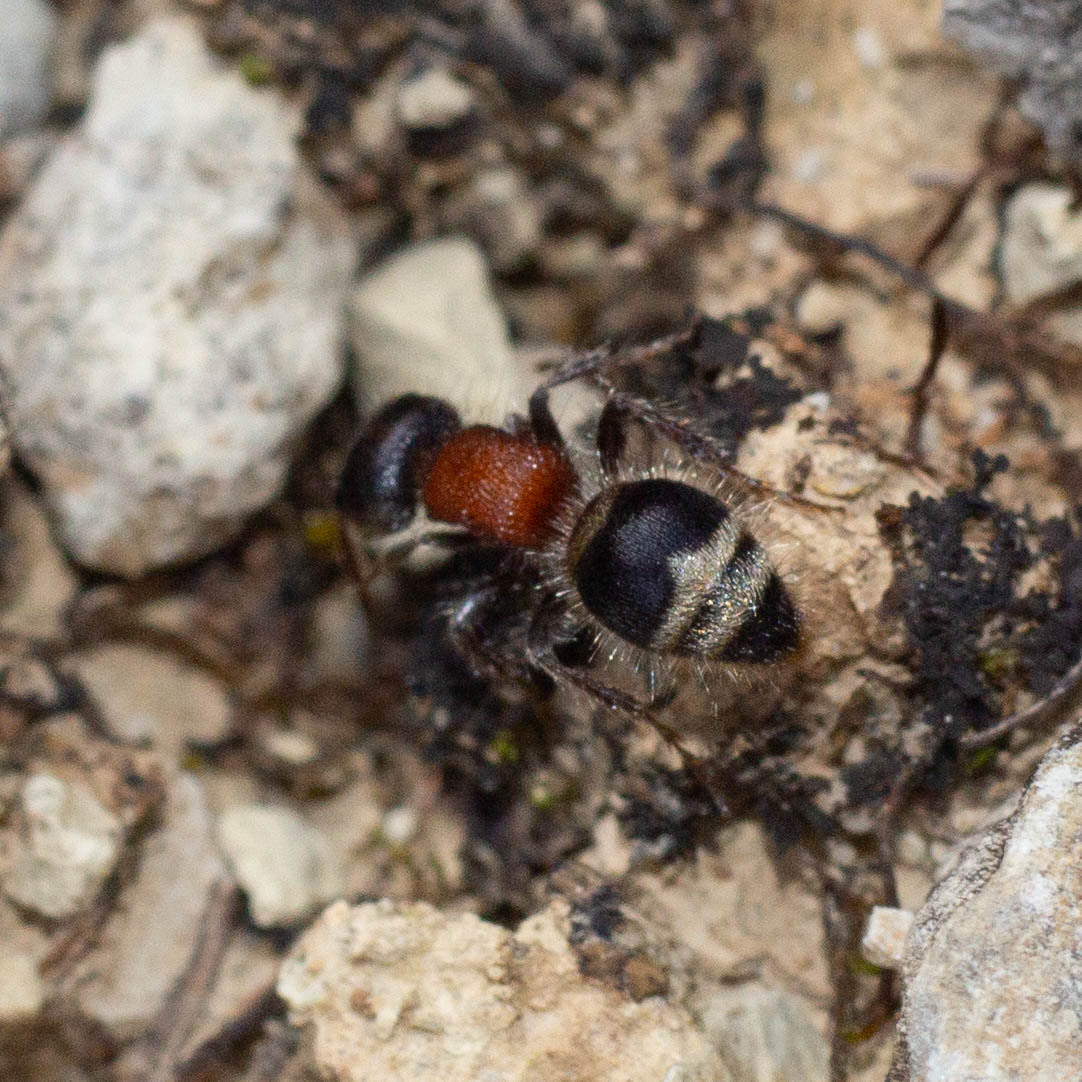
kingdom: Animalia
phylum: Arthropoda
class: Insecta
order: Hymenoptera
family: Mutillidae
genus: Myrmilla
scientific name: Myrmilla capitata
